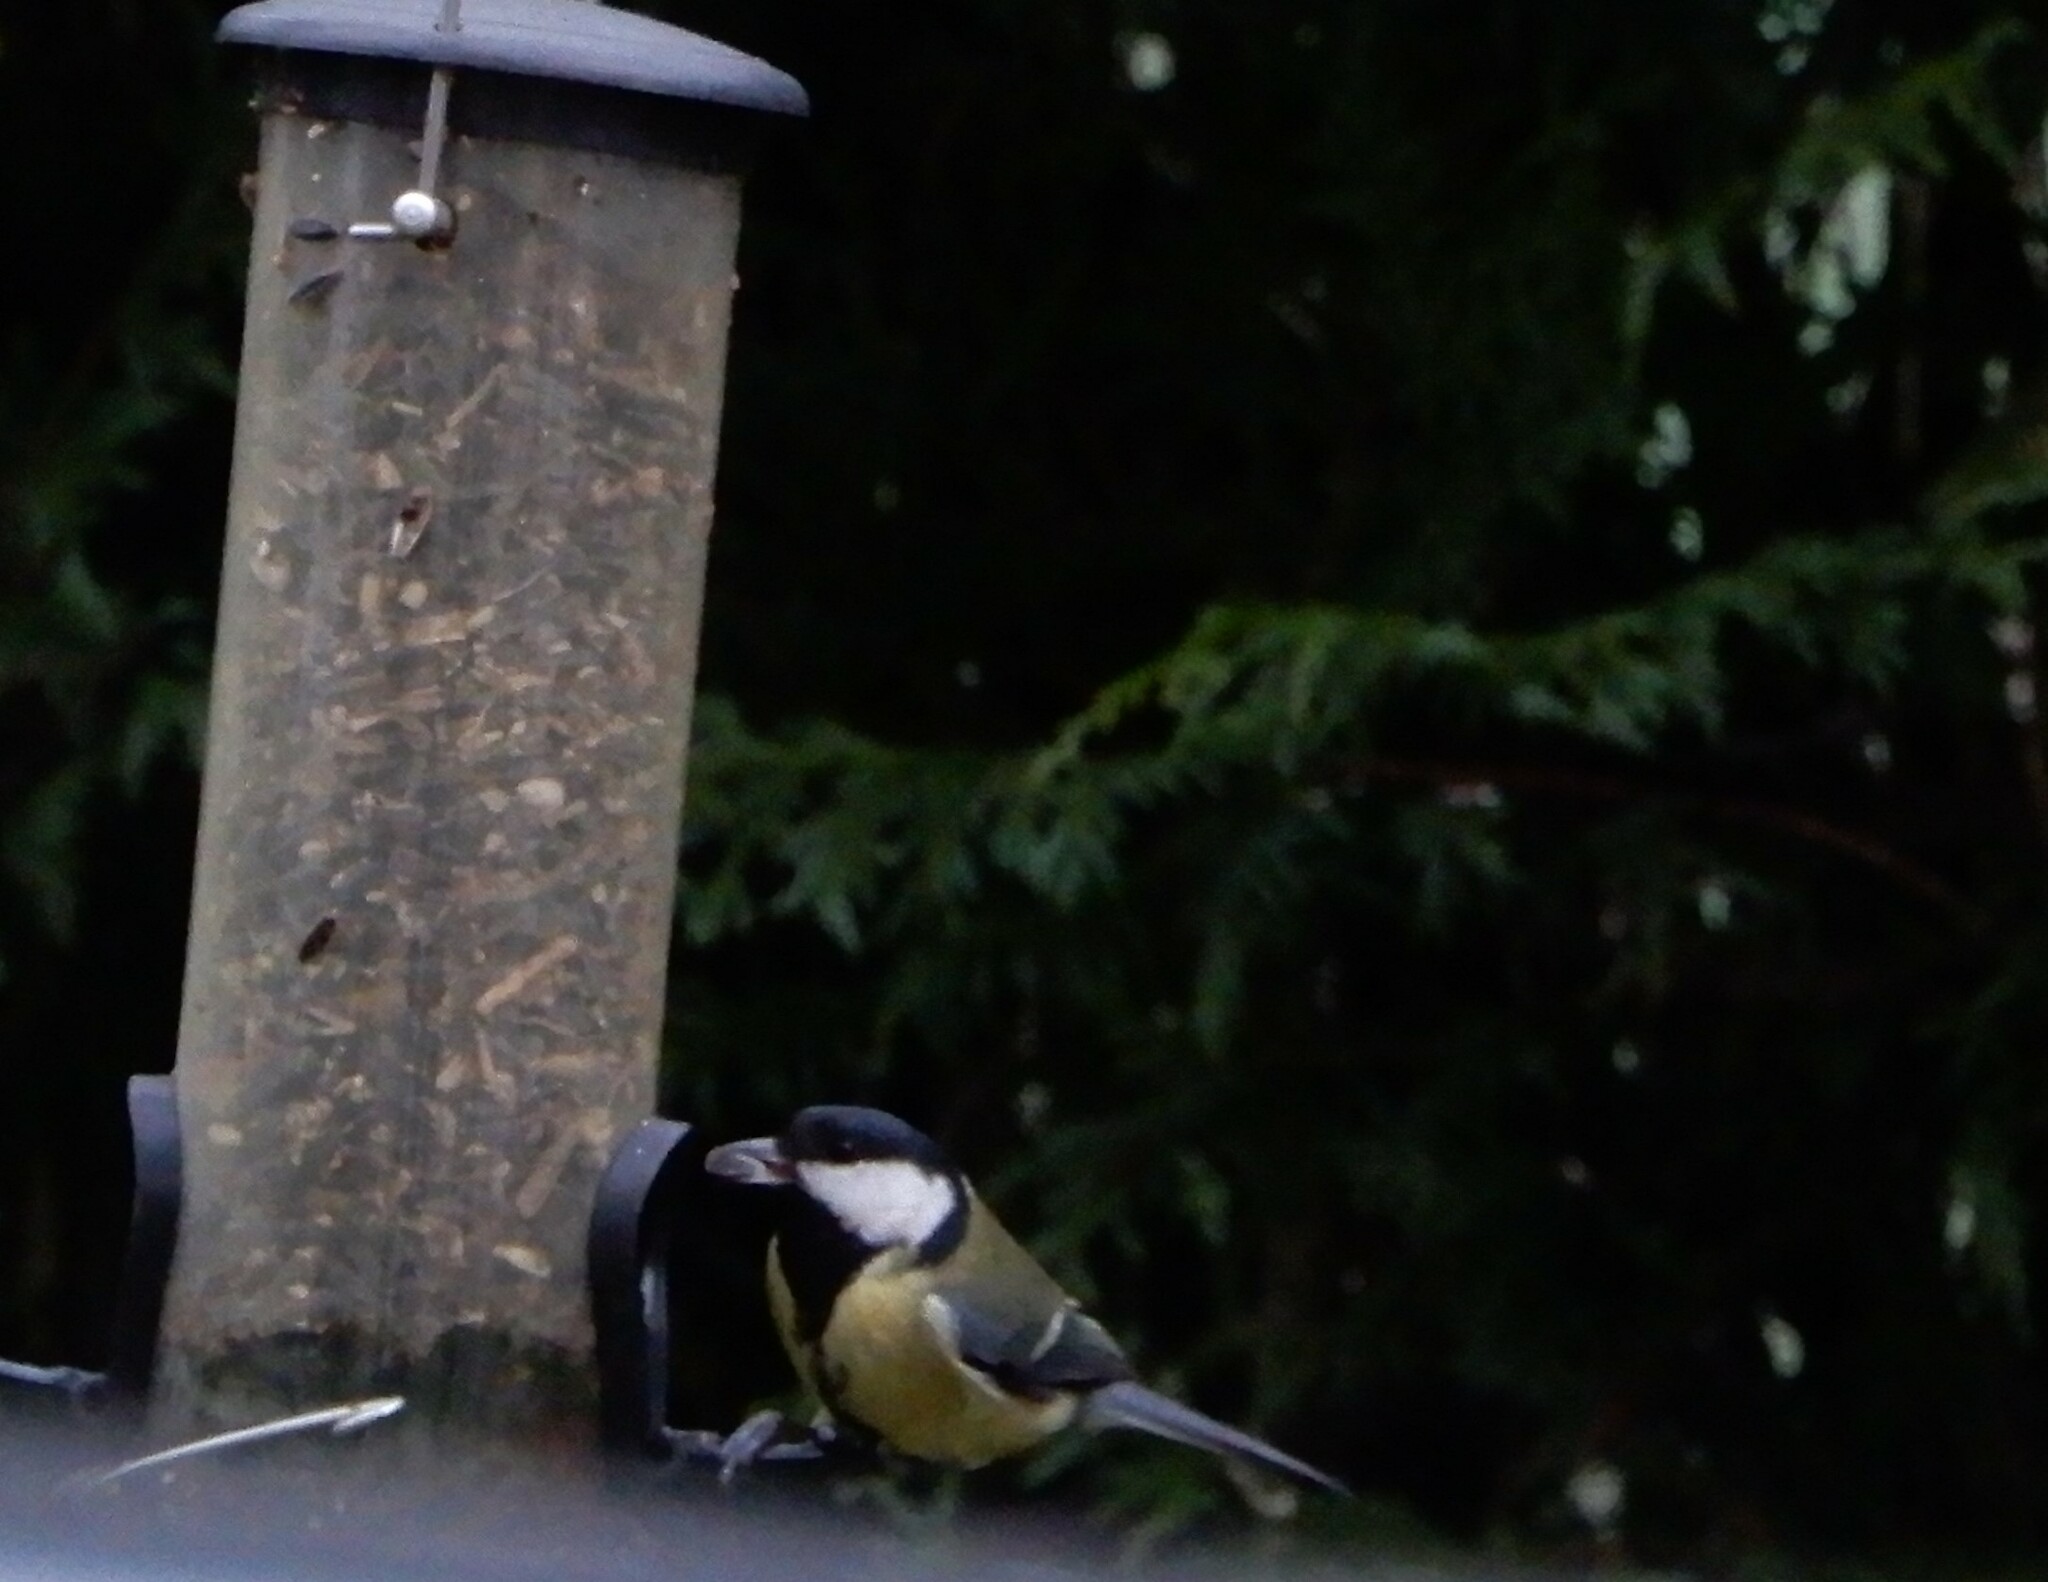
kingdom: Animalia
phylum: Chordata
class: Aves
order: Passeriformes
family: Paridae
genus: Parus
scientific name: Parus major
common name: Great tit
